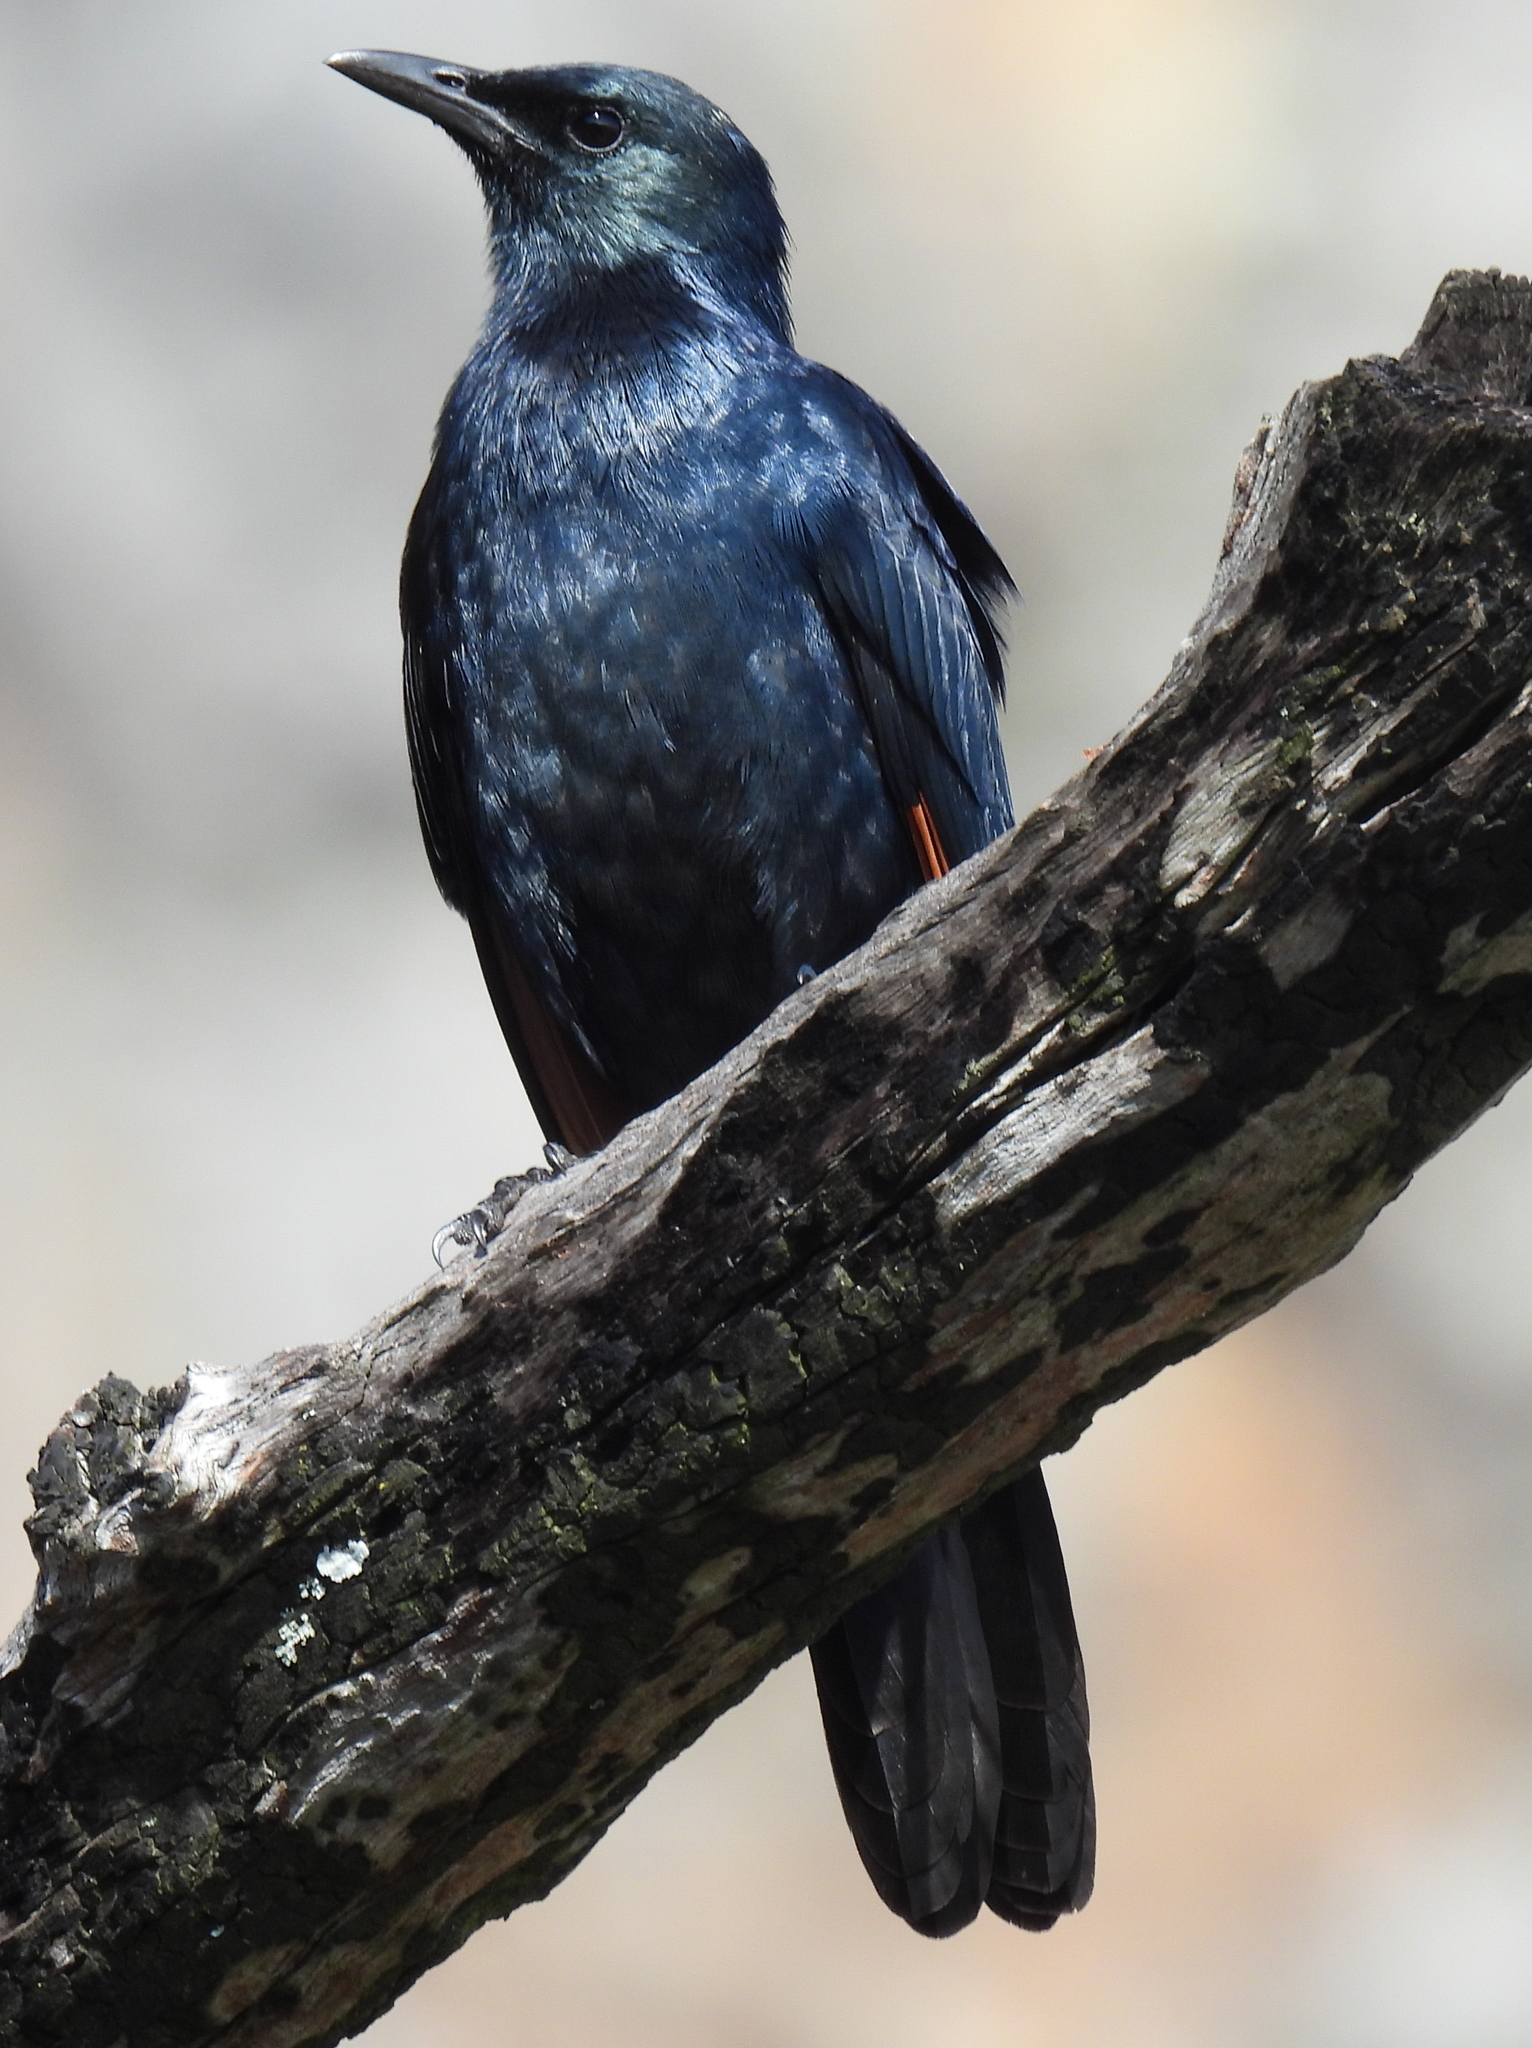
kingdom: Animalia
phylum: Chordata
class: Aves
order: Passeriformes
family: Sturnidae
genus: Onychognathus
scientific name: Onychognathus morio
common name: Red-winged starling
